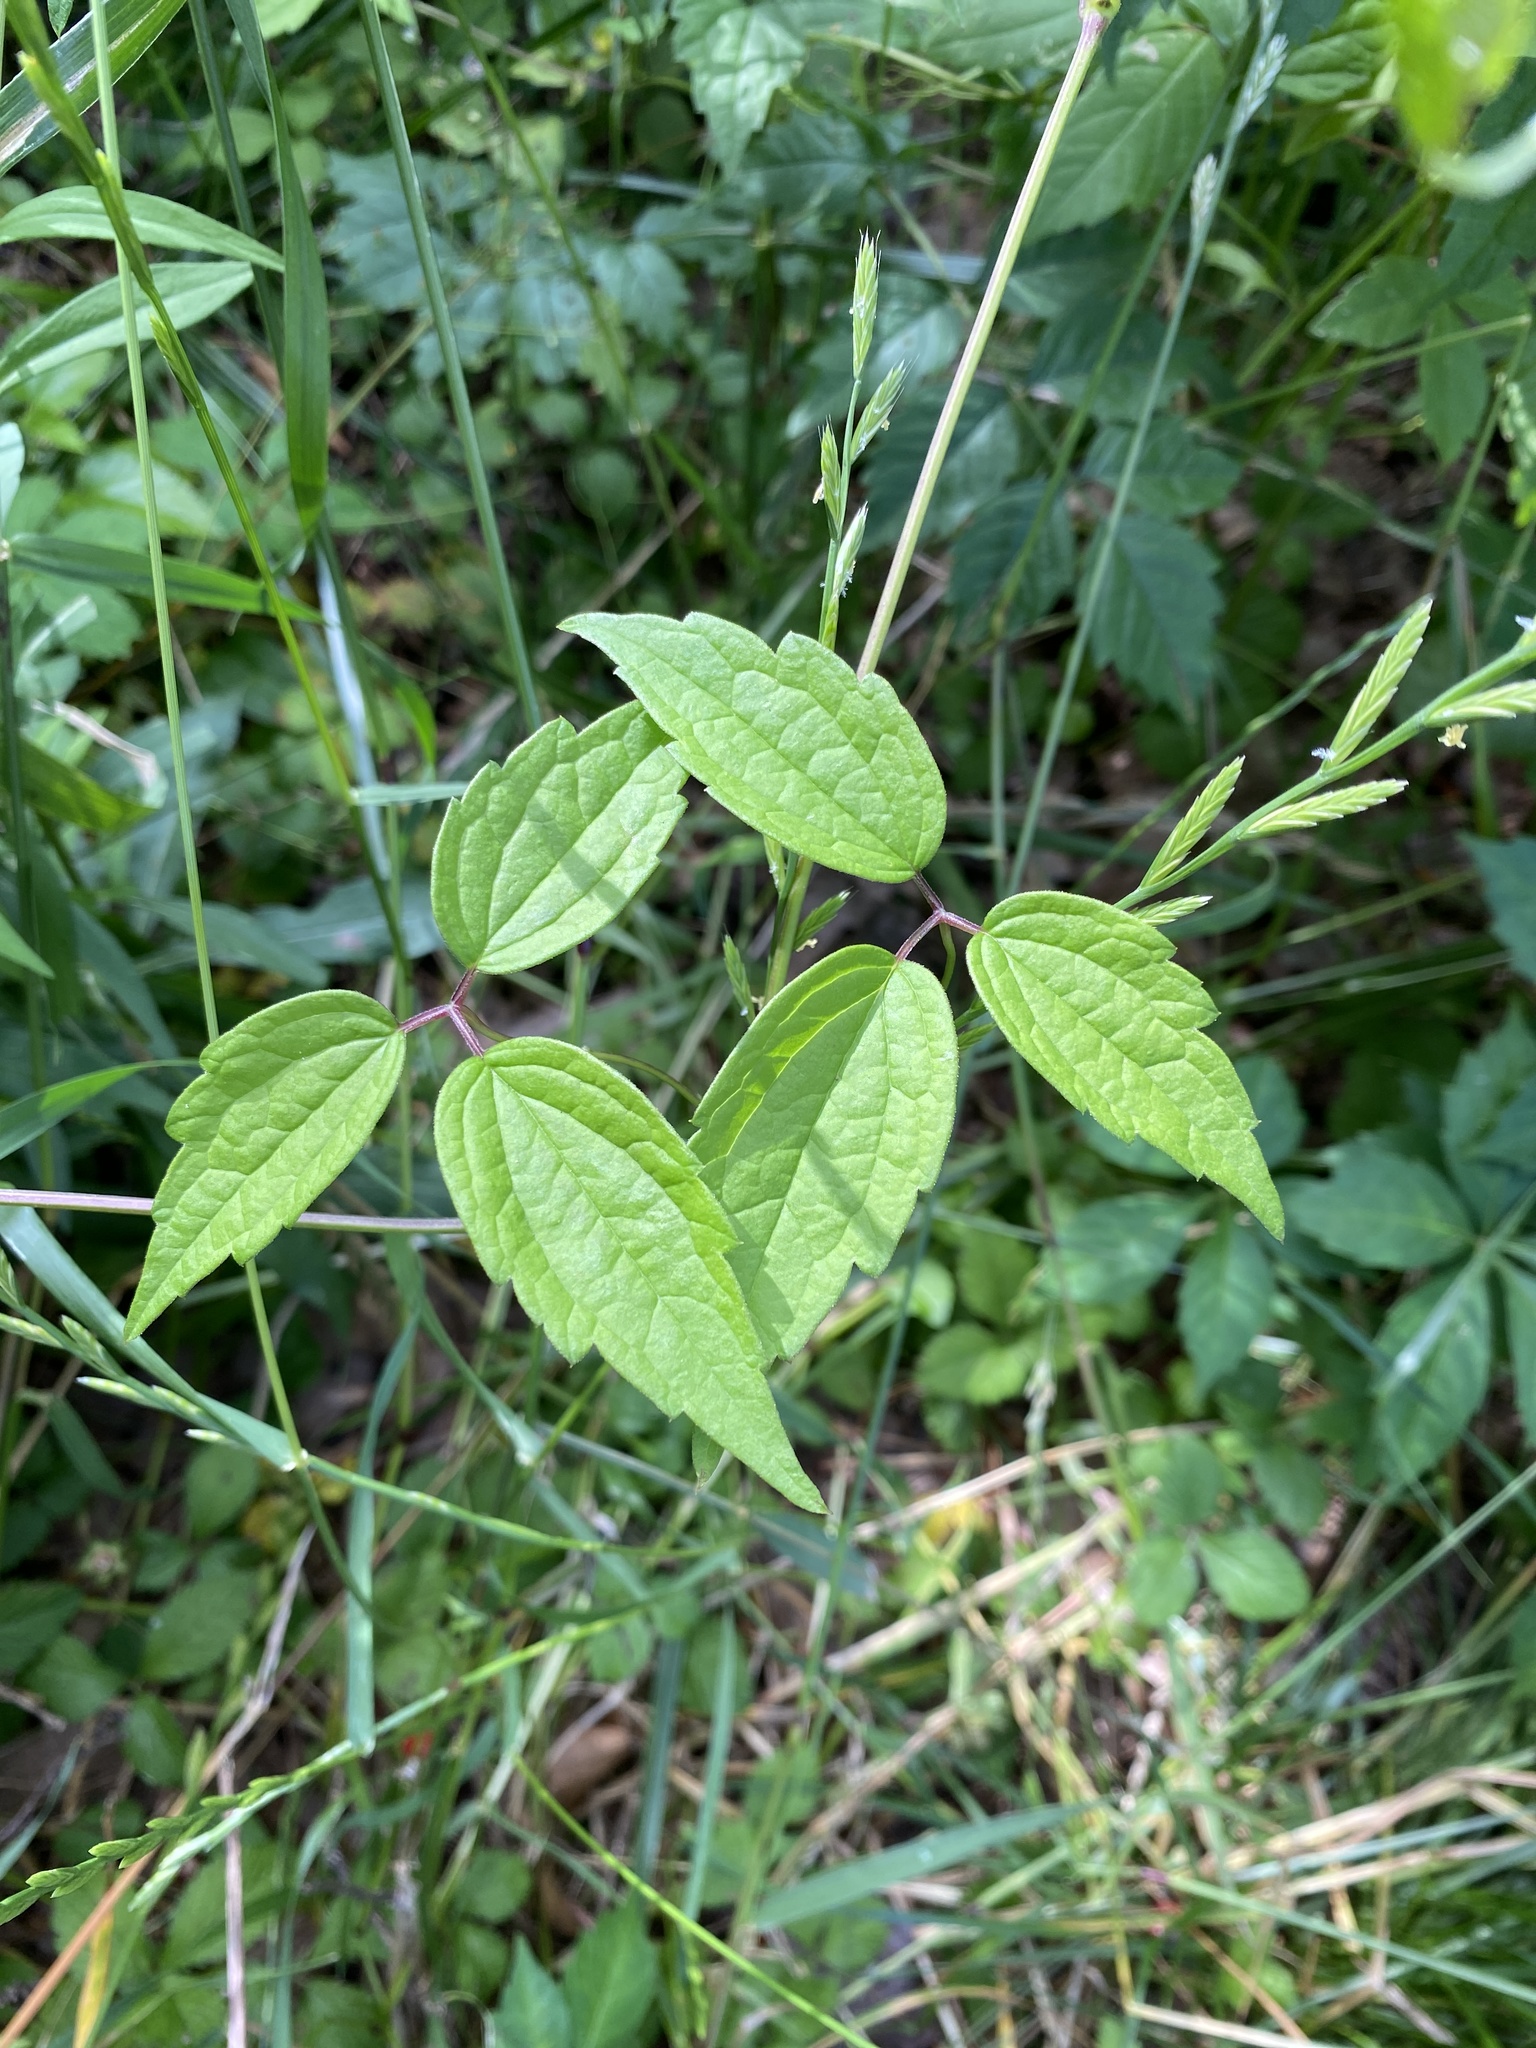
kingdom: Plantae
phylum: Tracheophyta
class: Magnoliopsida
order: Ranunculales
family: Ranunculaceae
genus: Clematis
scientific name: Clematis virginiana
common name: Virgin's-bower
